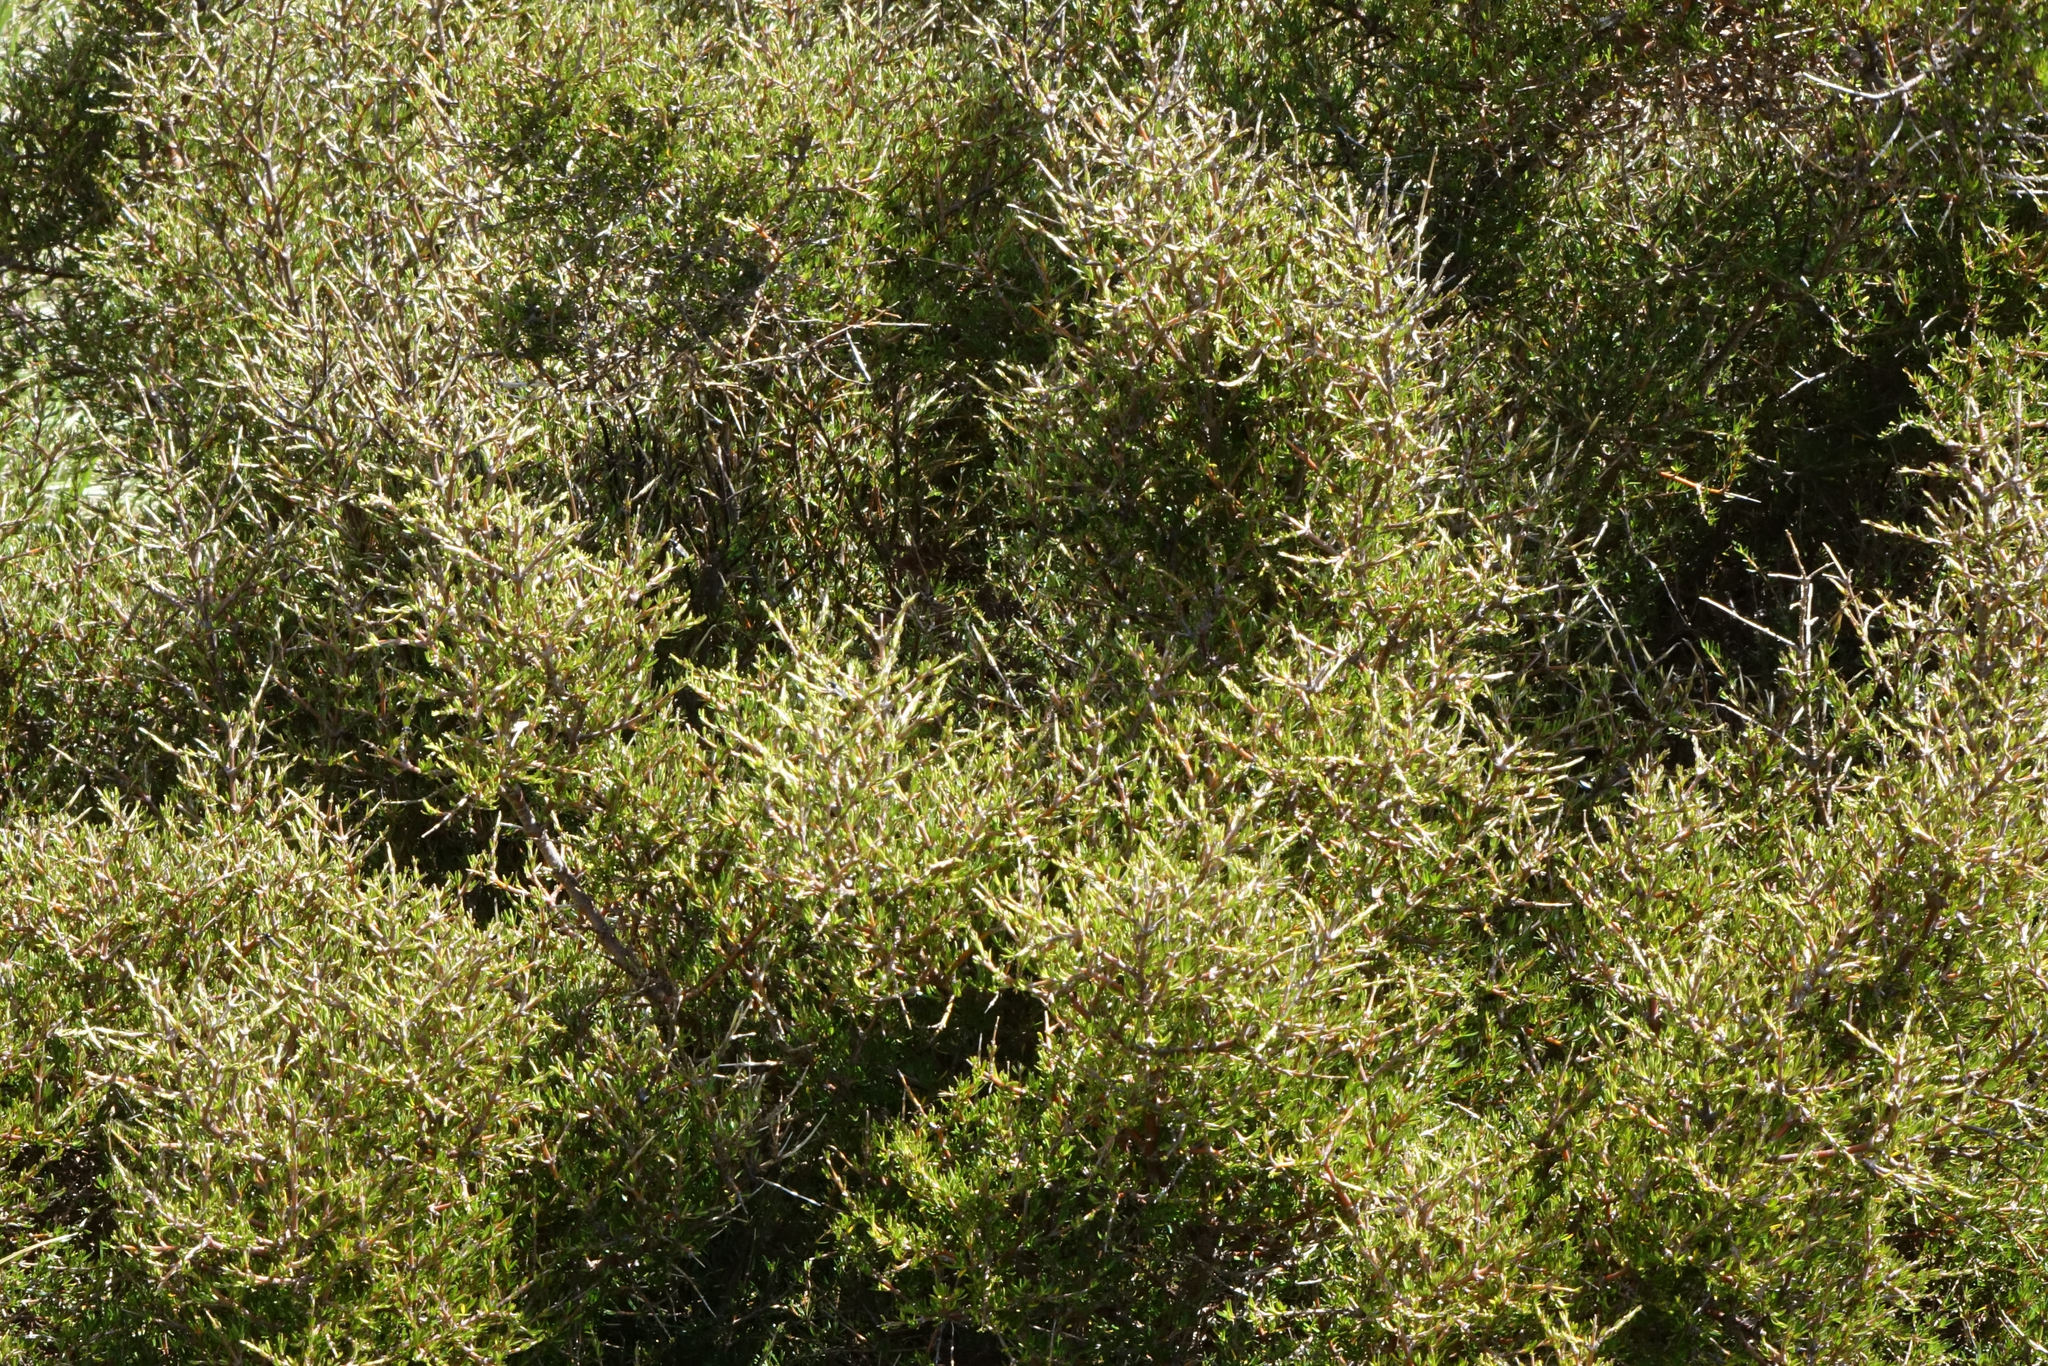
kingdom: Plantae
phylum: Tracheophyta
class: Magnoliopsida
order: Gentianales
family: Rubiaceae
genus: Coprosma
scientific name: Coprosma rugosa
